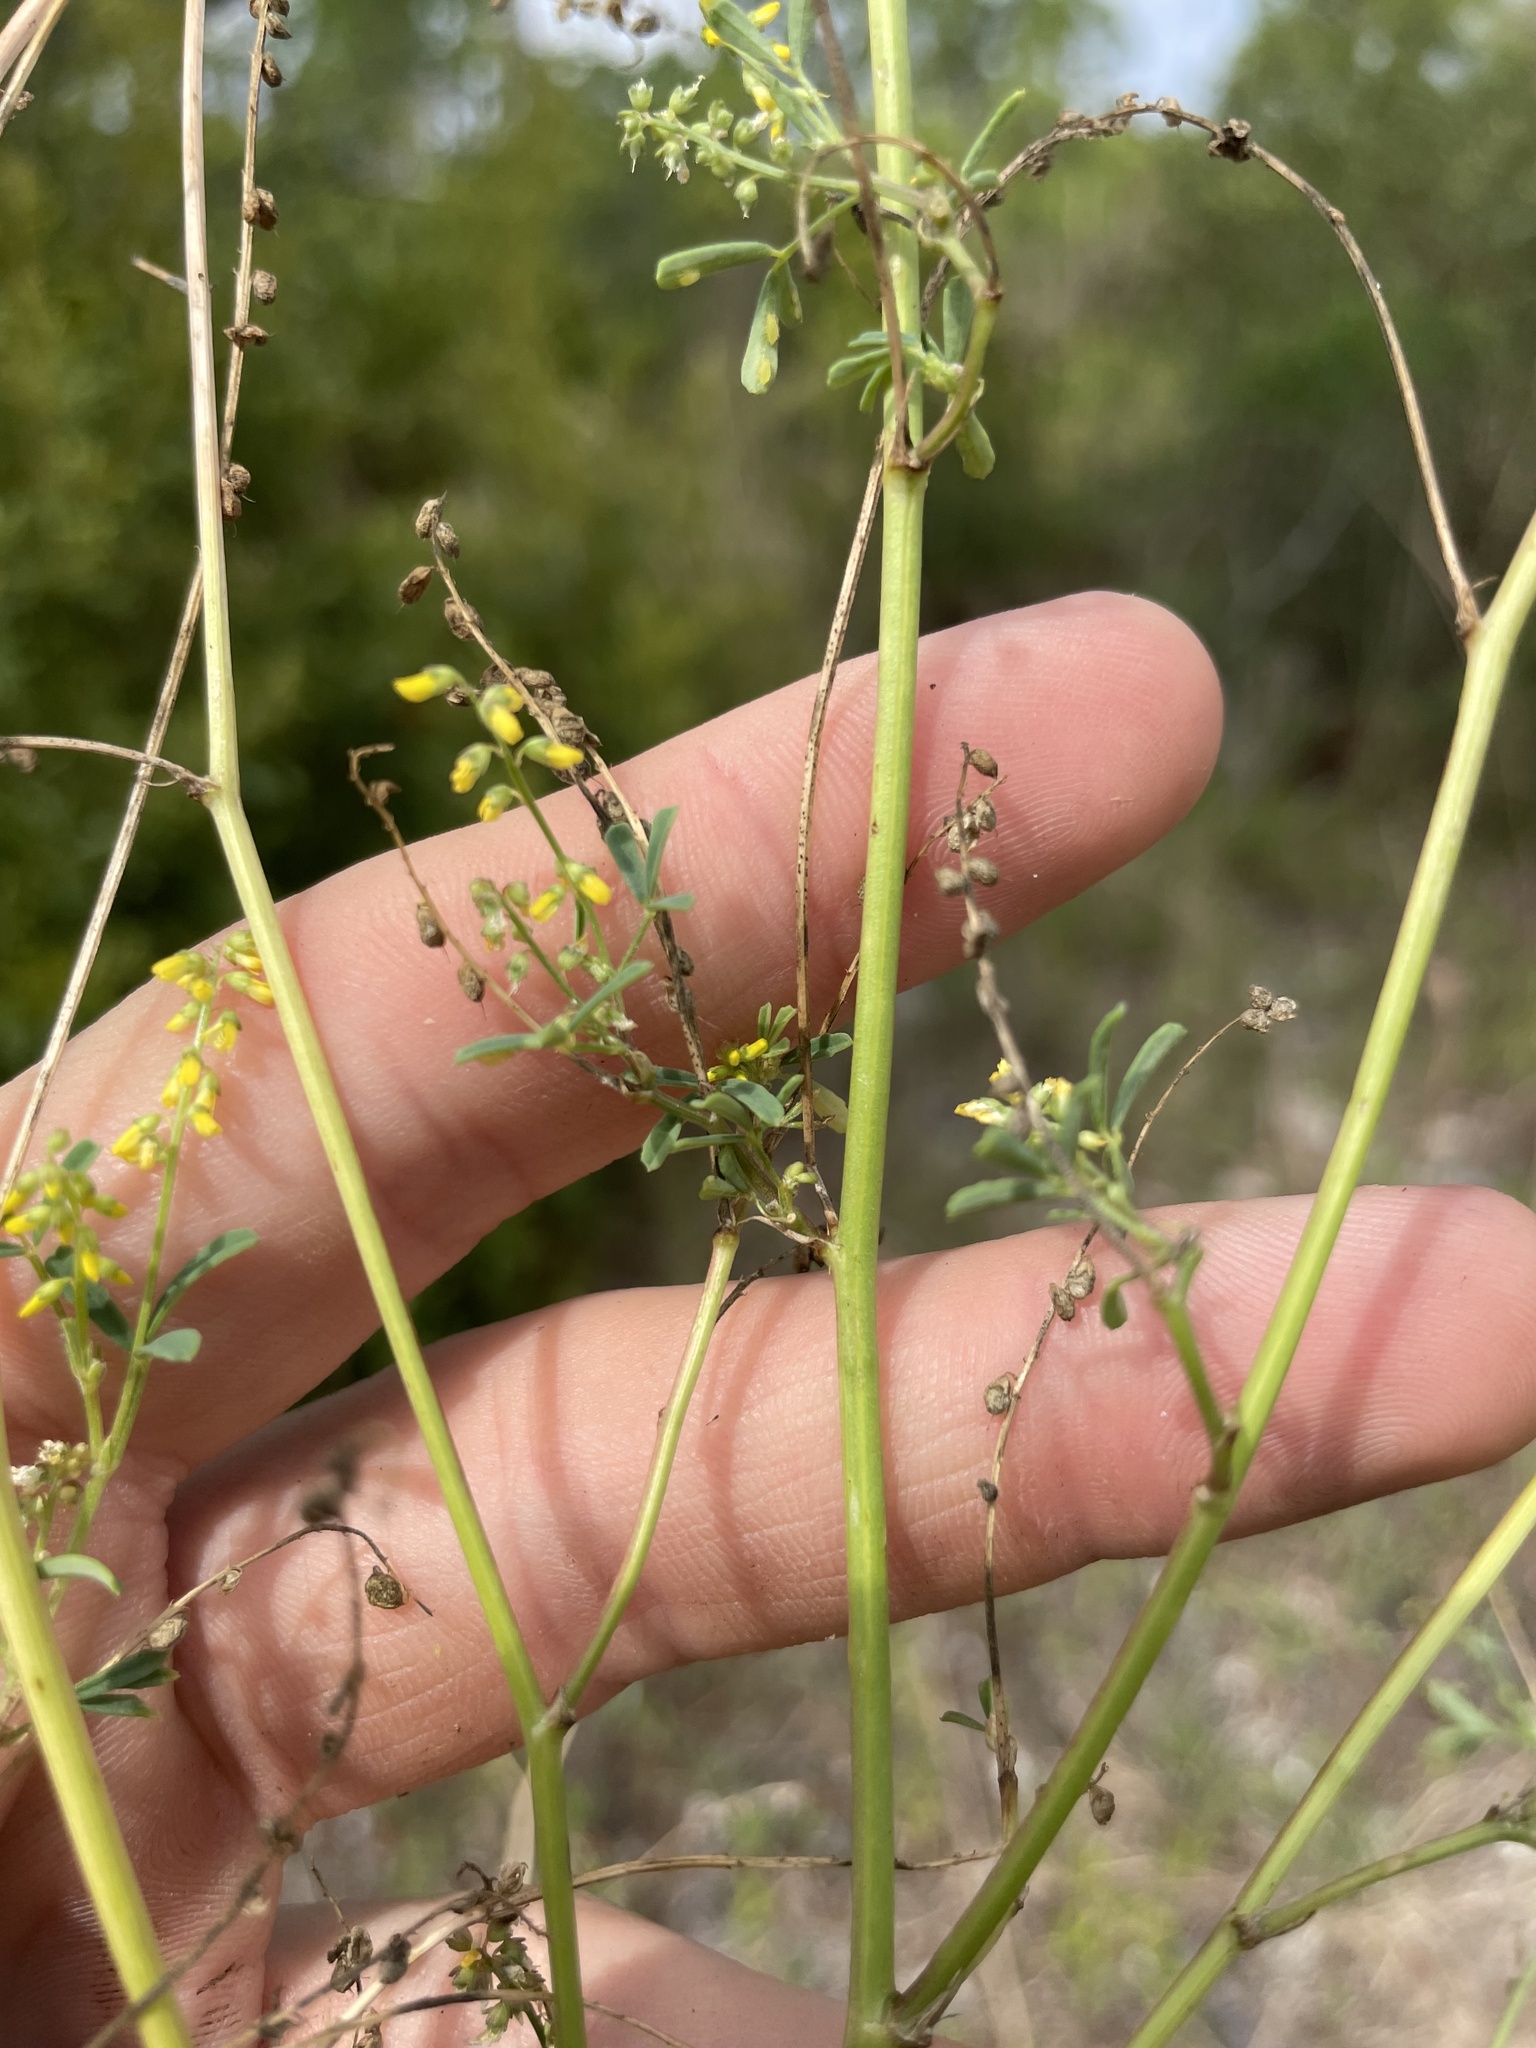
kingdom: Plantae
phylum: Tracheophyta
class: Magnoliopsida
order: Fabales
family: Fabaceae
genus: Melilotus
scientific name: Melilotus indicus
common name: Small melilot
